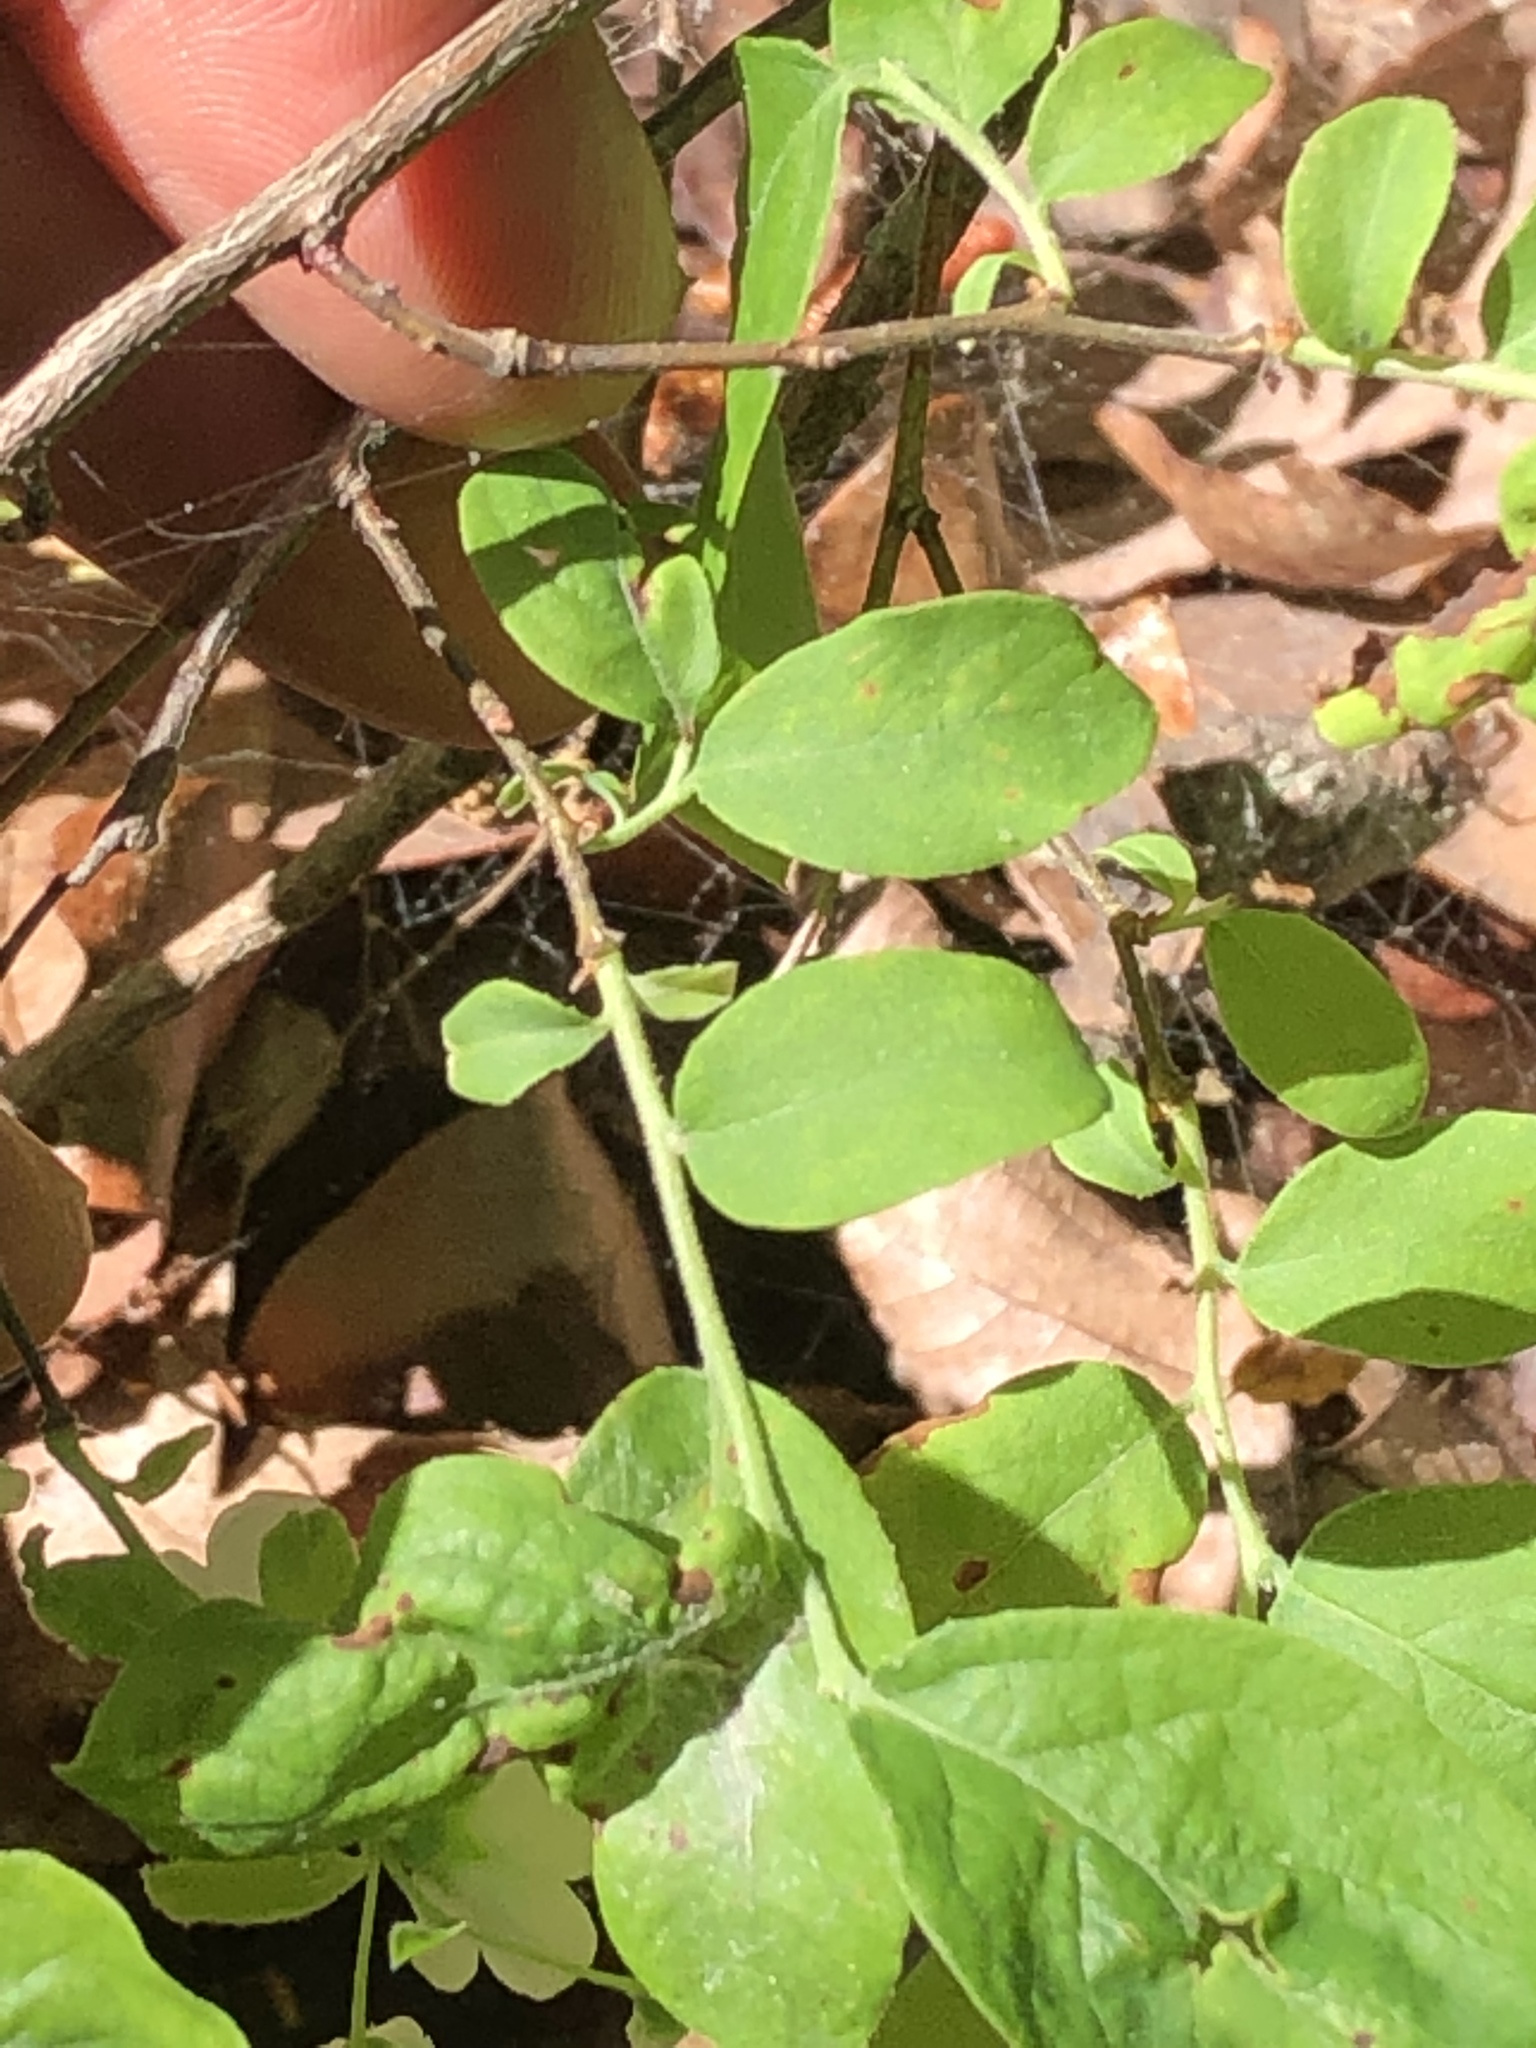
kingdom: Plantae
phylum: Tracheophyta
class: Magnoliopsida
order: Ericales
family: Ericaceae
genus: Vaccinium
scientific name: Vaccinium stamineum
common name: Deerberry
